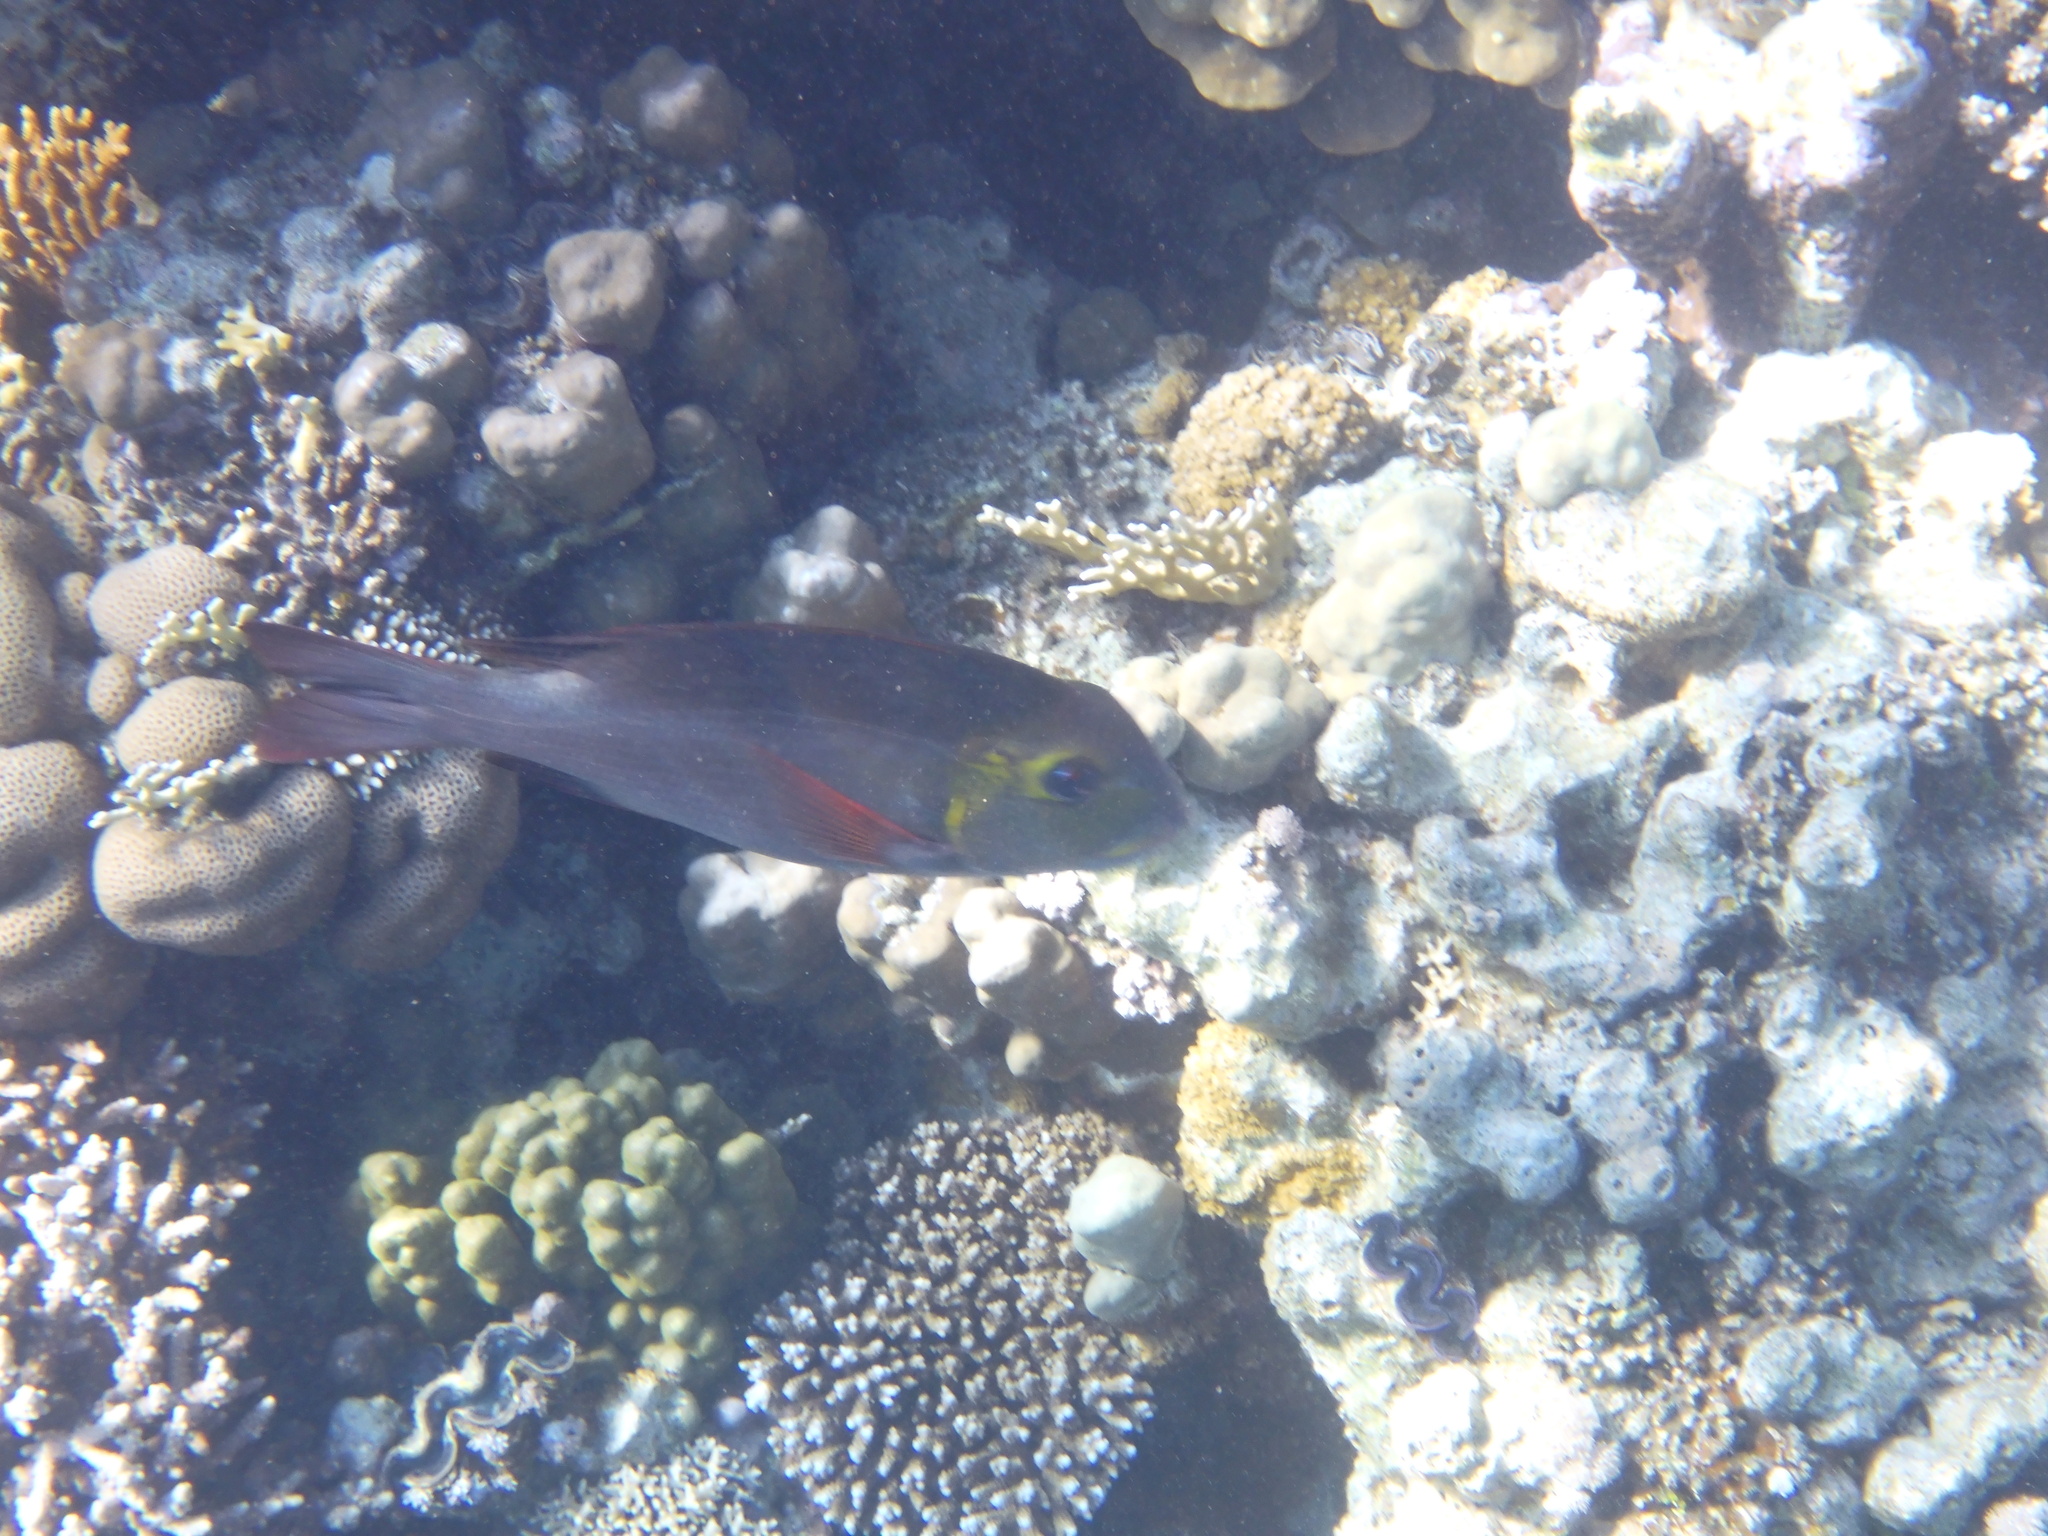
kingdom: Animalia
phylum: Chordata
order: Perciformes
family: Lethrinidae
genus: Monotaxis
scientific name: Monotaxis grandoculis
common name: Bigeye emperor
